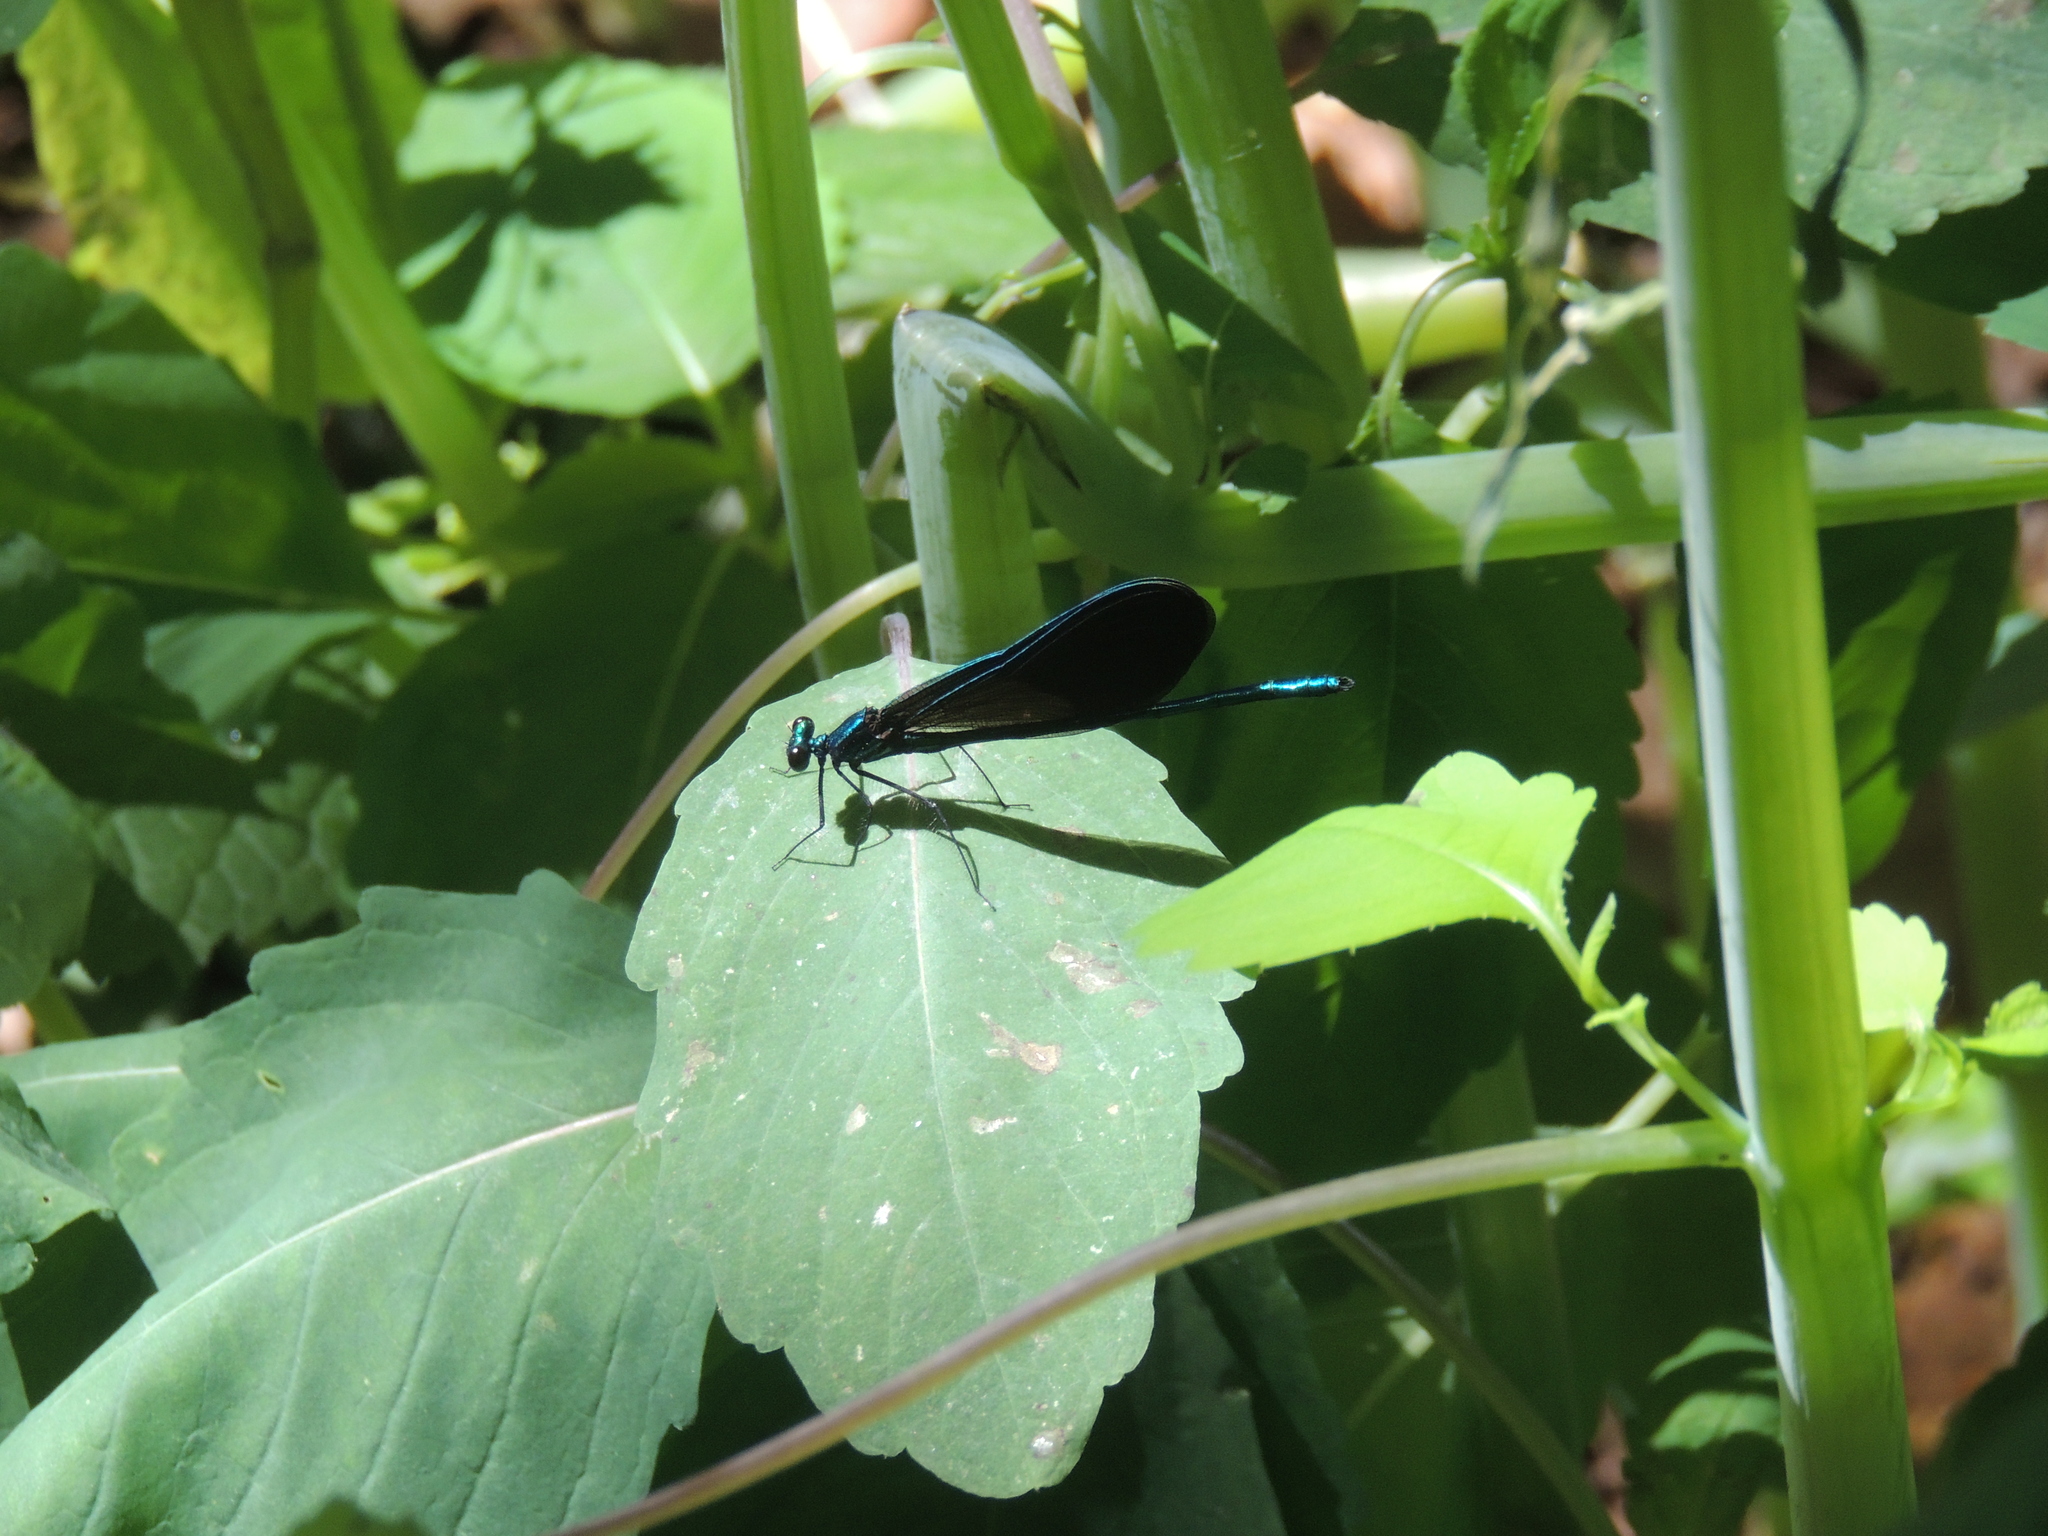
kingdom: Animalia
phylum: Arthropoda
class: Insecta
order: Odonata
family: Calopterygidae
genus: Calopteryx
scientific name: Calopteryx maculata
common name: Ebony jewelwing
